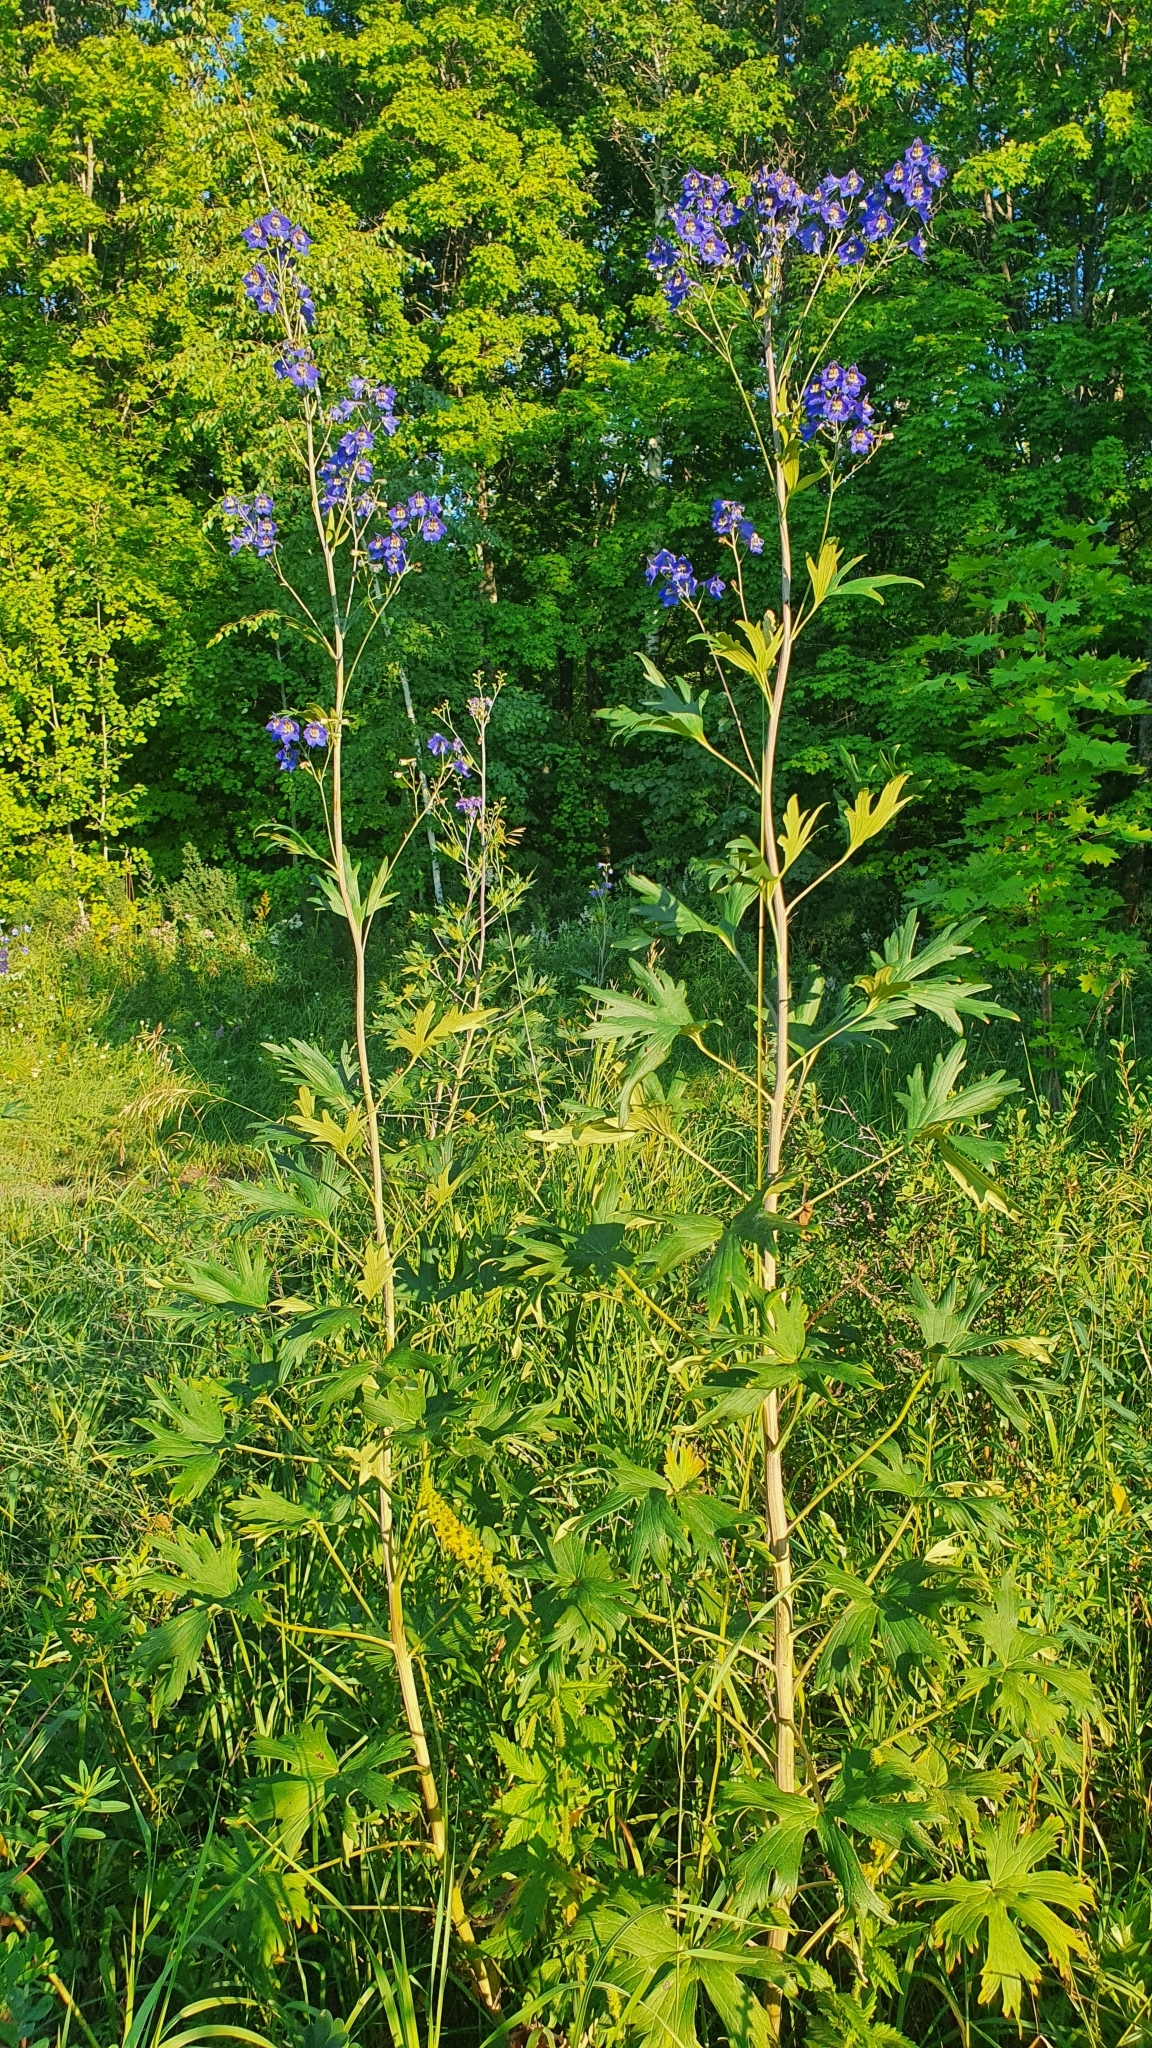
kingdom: Plantae
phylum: Tracheophyta
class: Magnoliopsida
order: Ranunculales
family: Ranunculaceae
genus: Delphinium
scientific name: Delphinium elatum
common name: Candle larkspur
